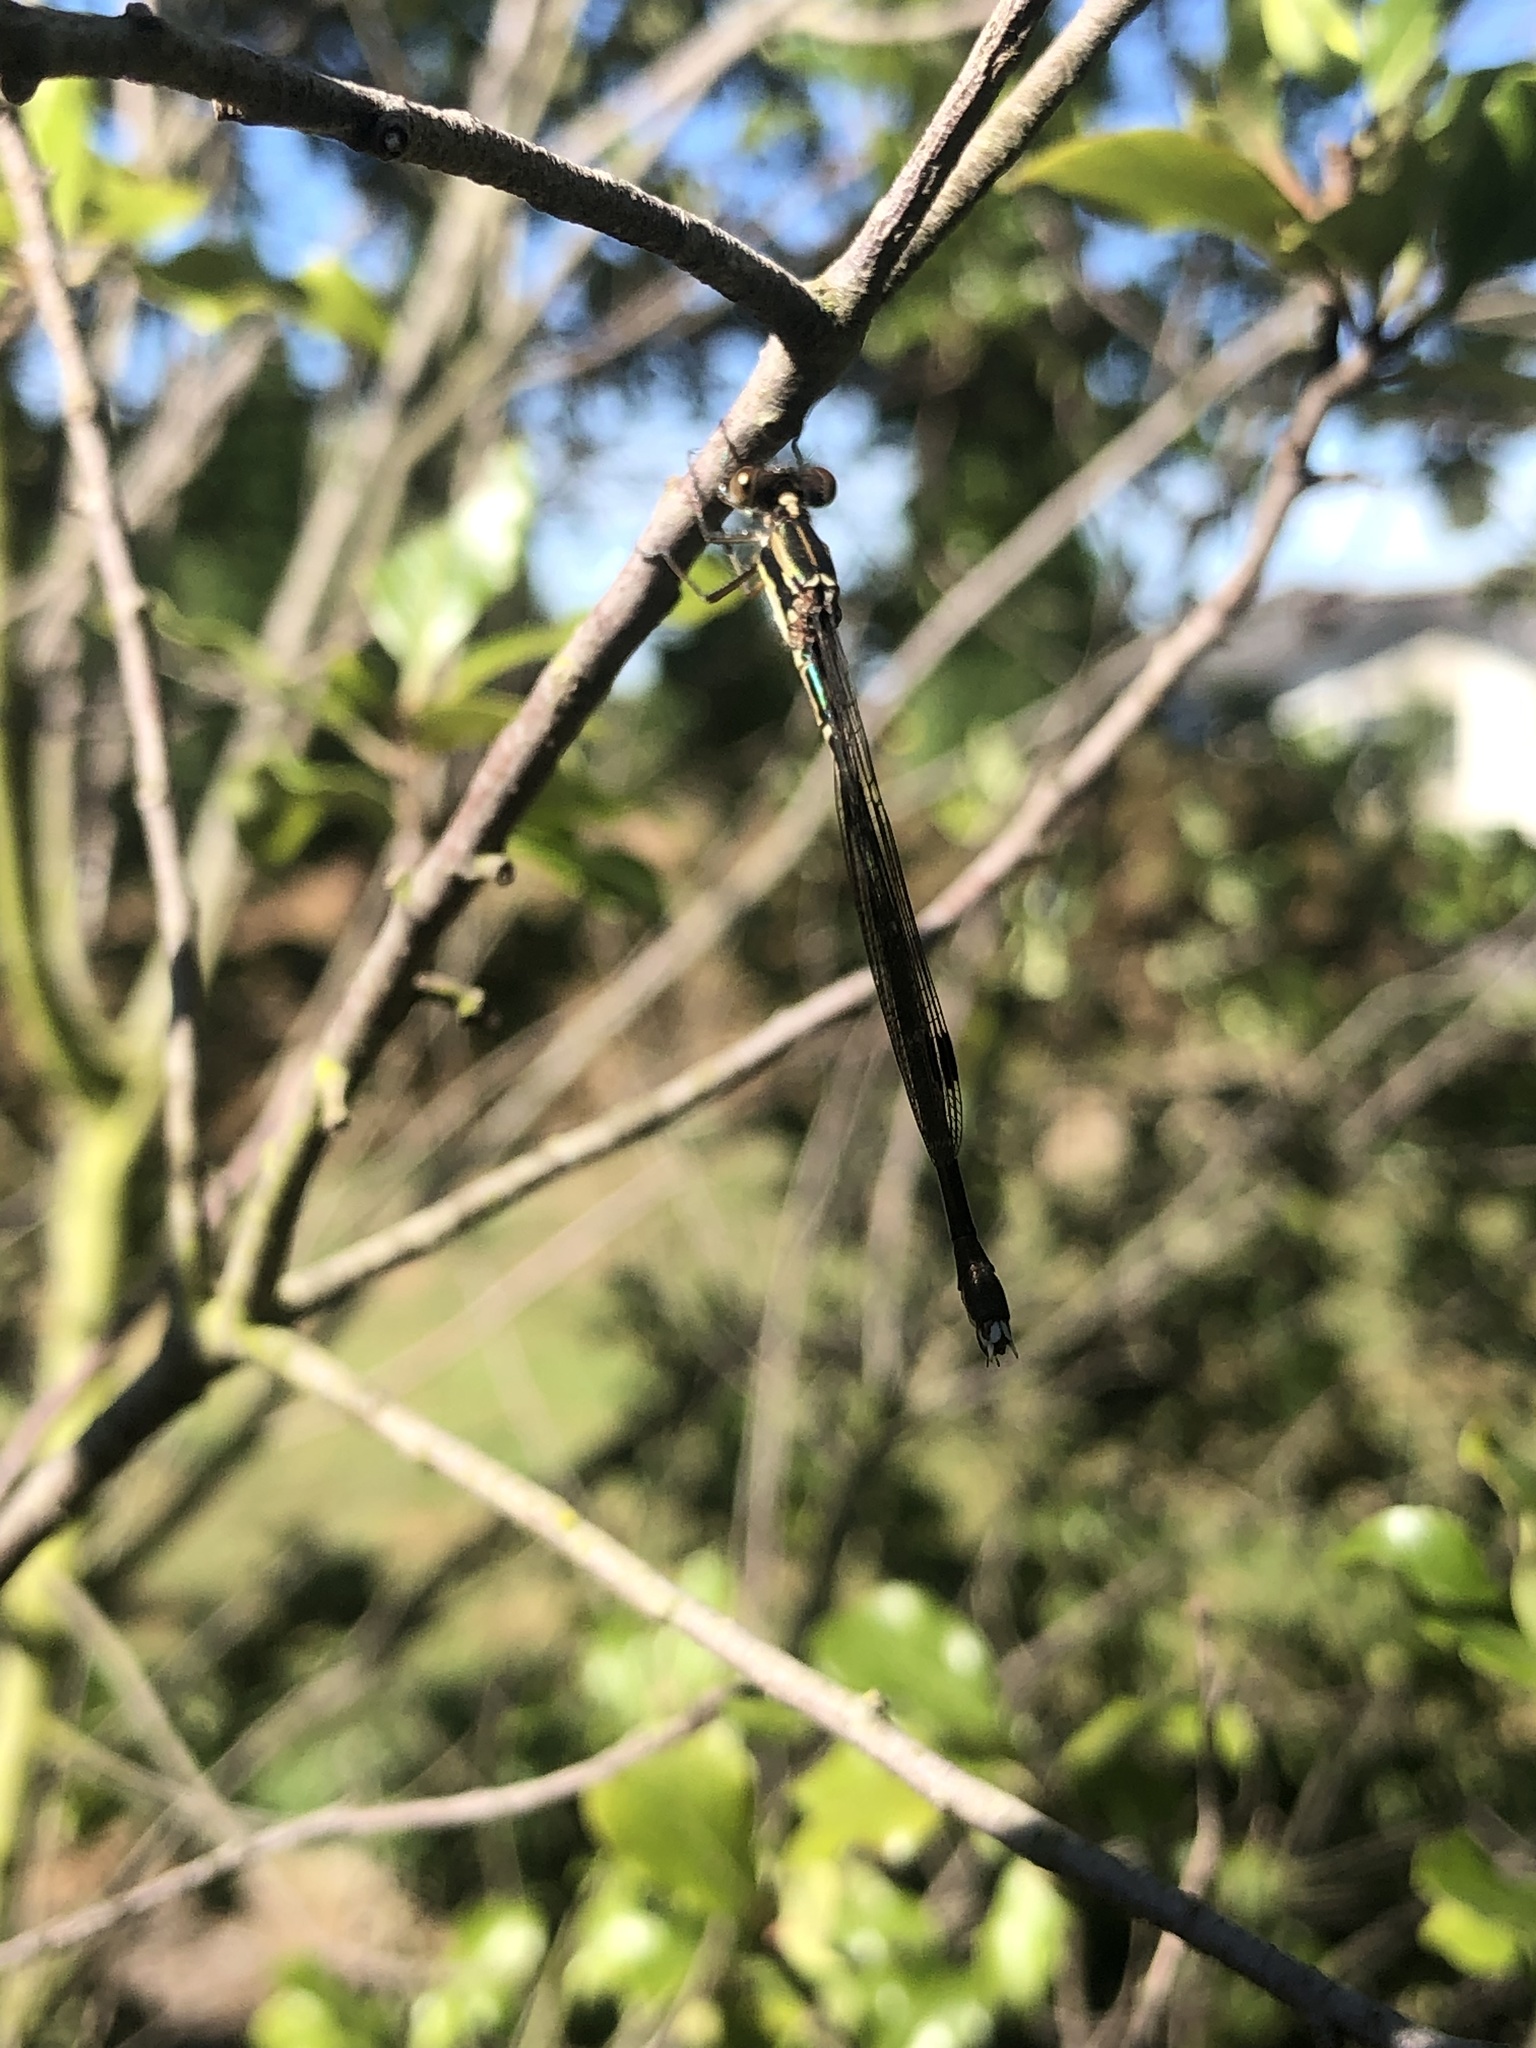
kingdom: Animalia
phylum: Arthropoda
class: Insecta
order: Odonata
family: Lestidae
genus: Austrolestes
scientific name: Austrolestes colensonis
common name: Blue damselfly
